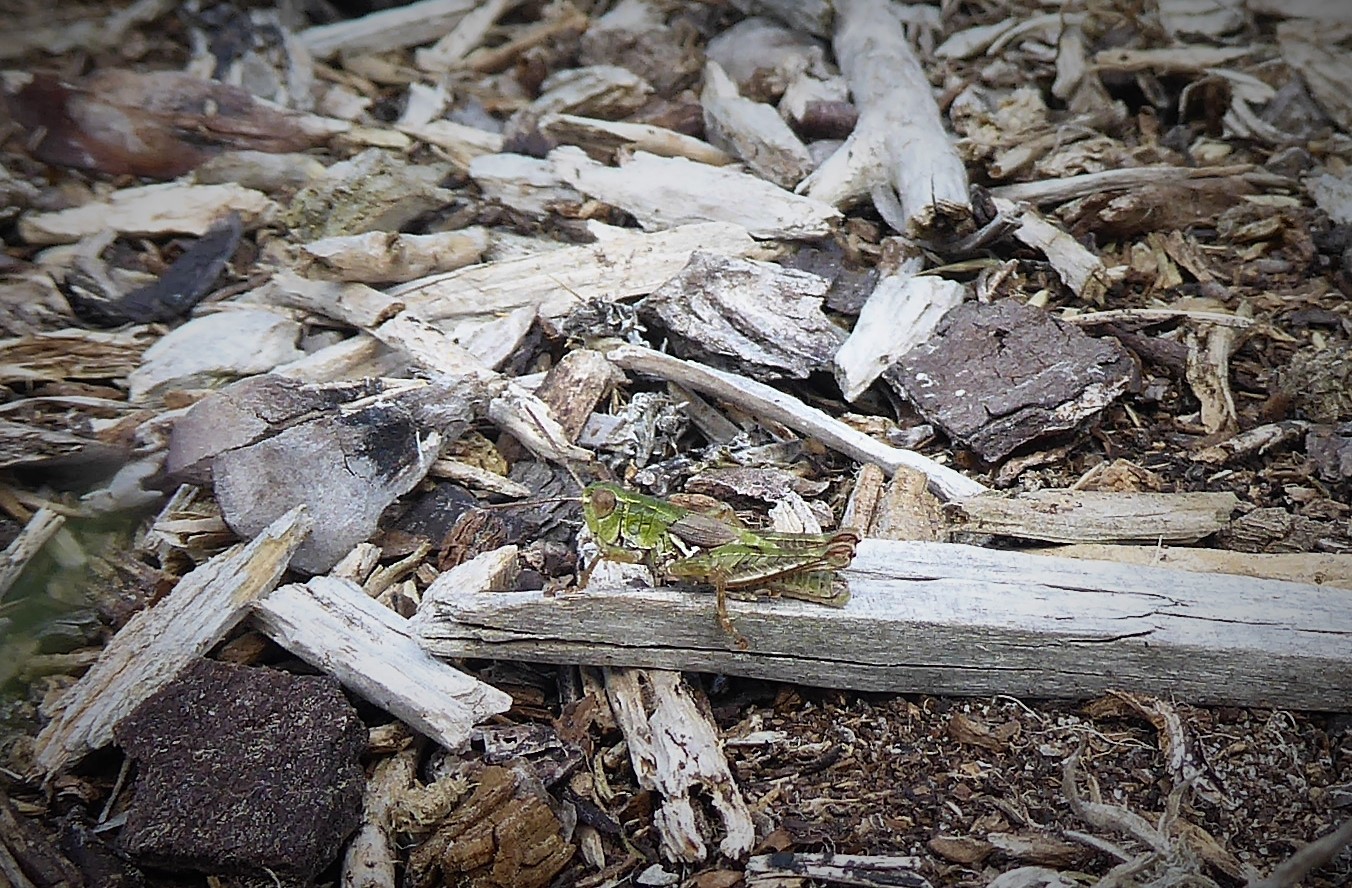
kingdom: Animalia
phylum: Arthropoda
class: Insecta
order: Orthoptera
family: Acrididae
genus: Phaulacridium
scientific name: Phaulacridium marginale
